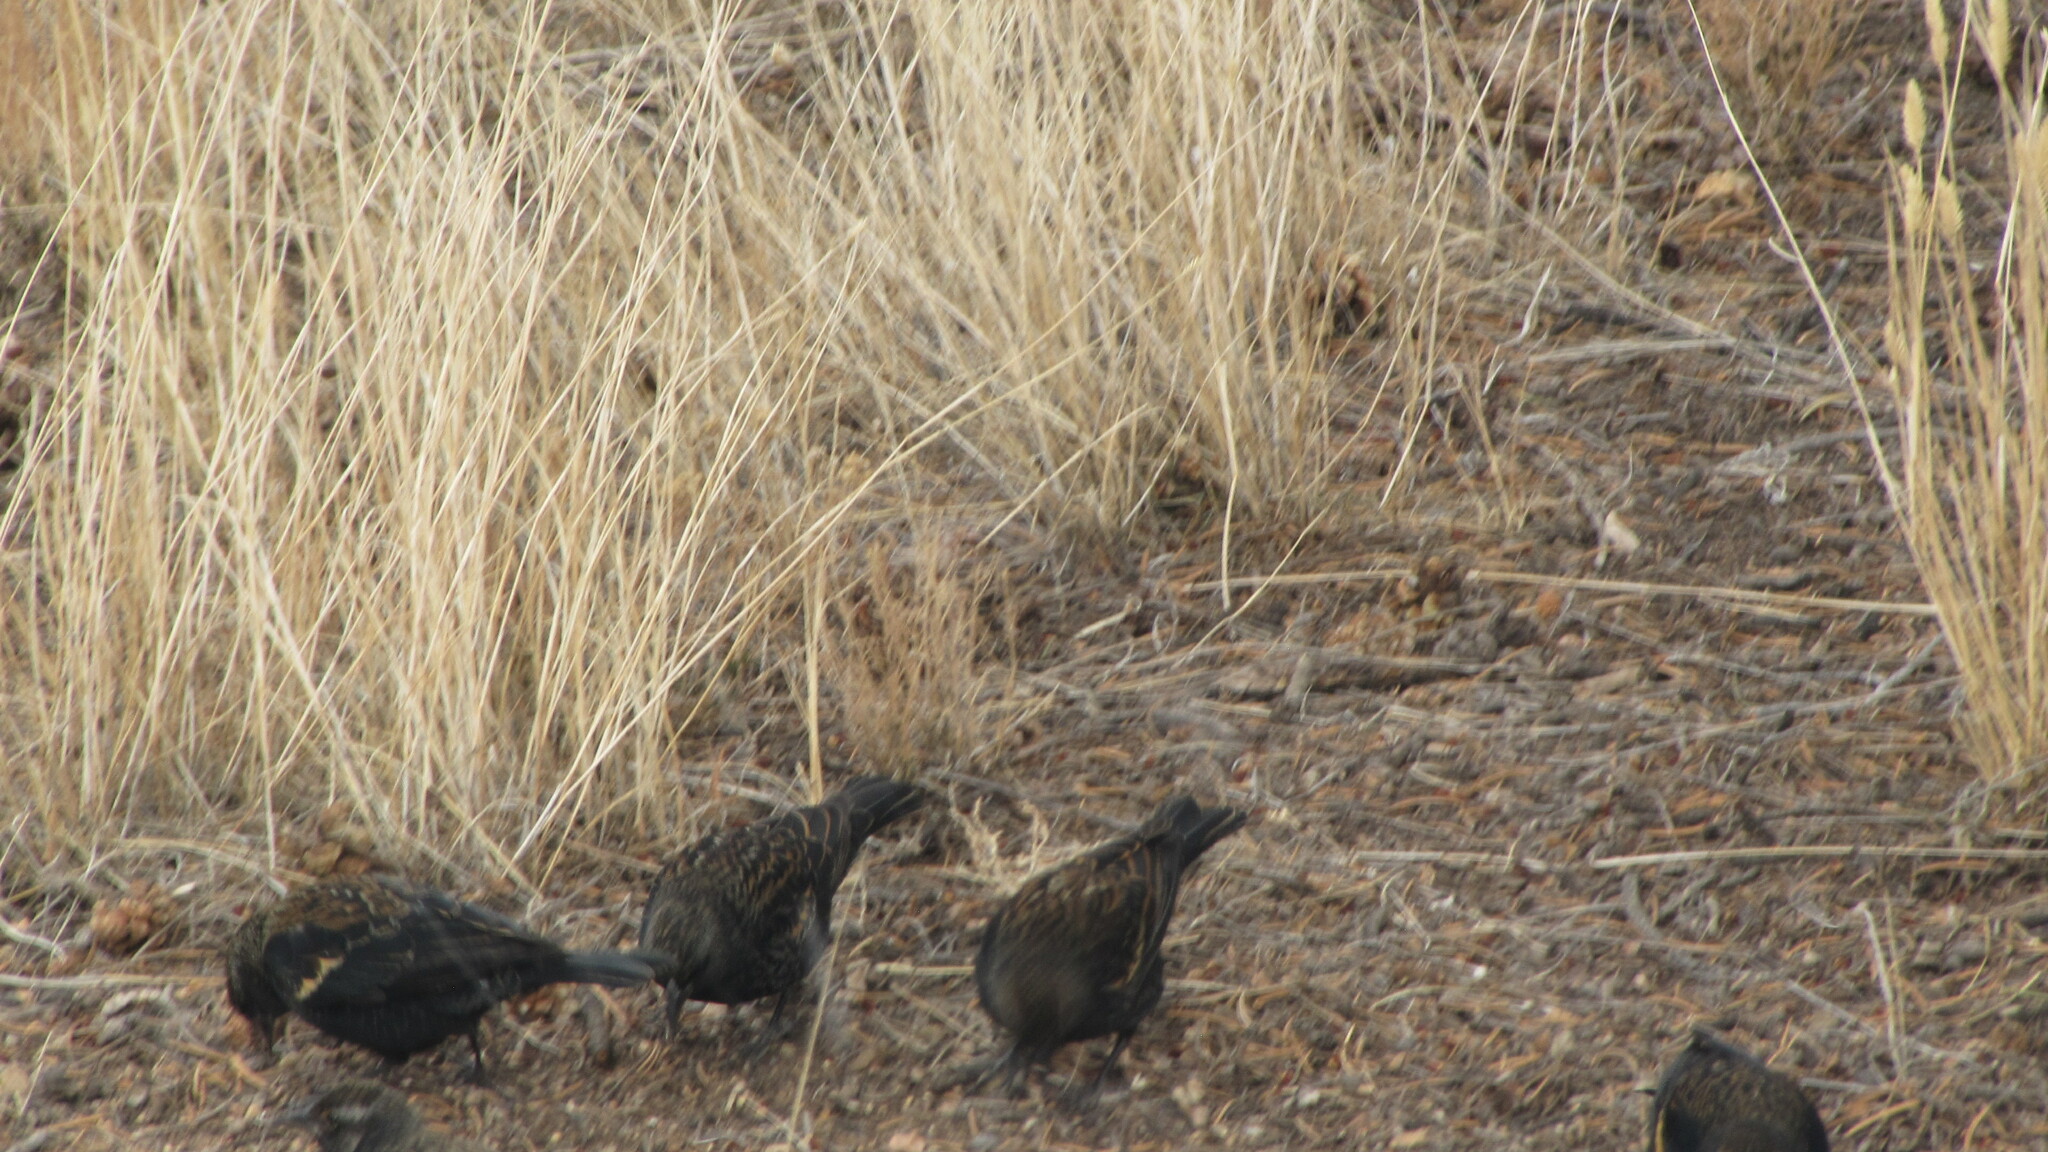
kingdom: Animalia
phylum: Chordata
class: Aves
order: Passeriformes
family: Icteridae
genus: Agelaius
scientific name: Agelaius phoeniceus
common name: Red-winged blackbird
